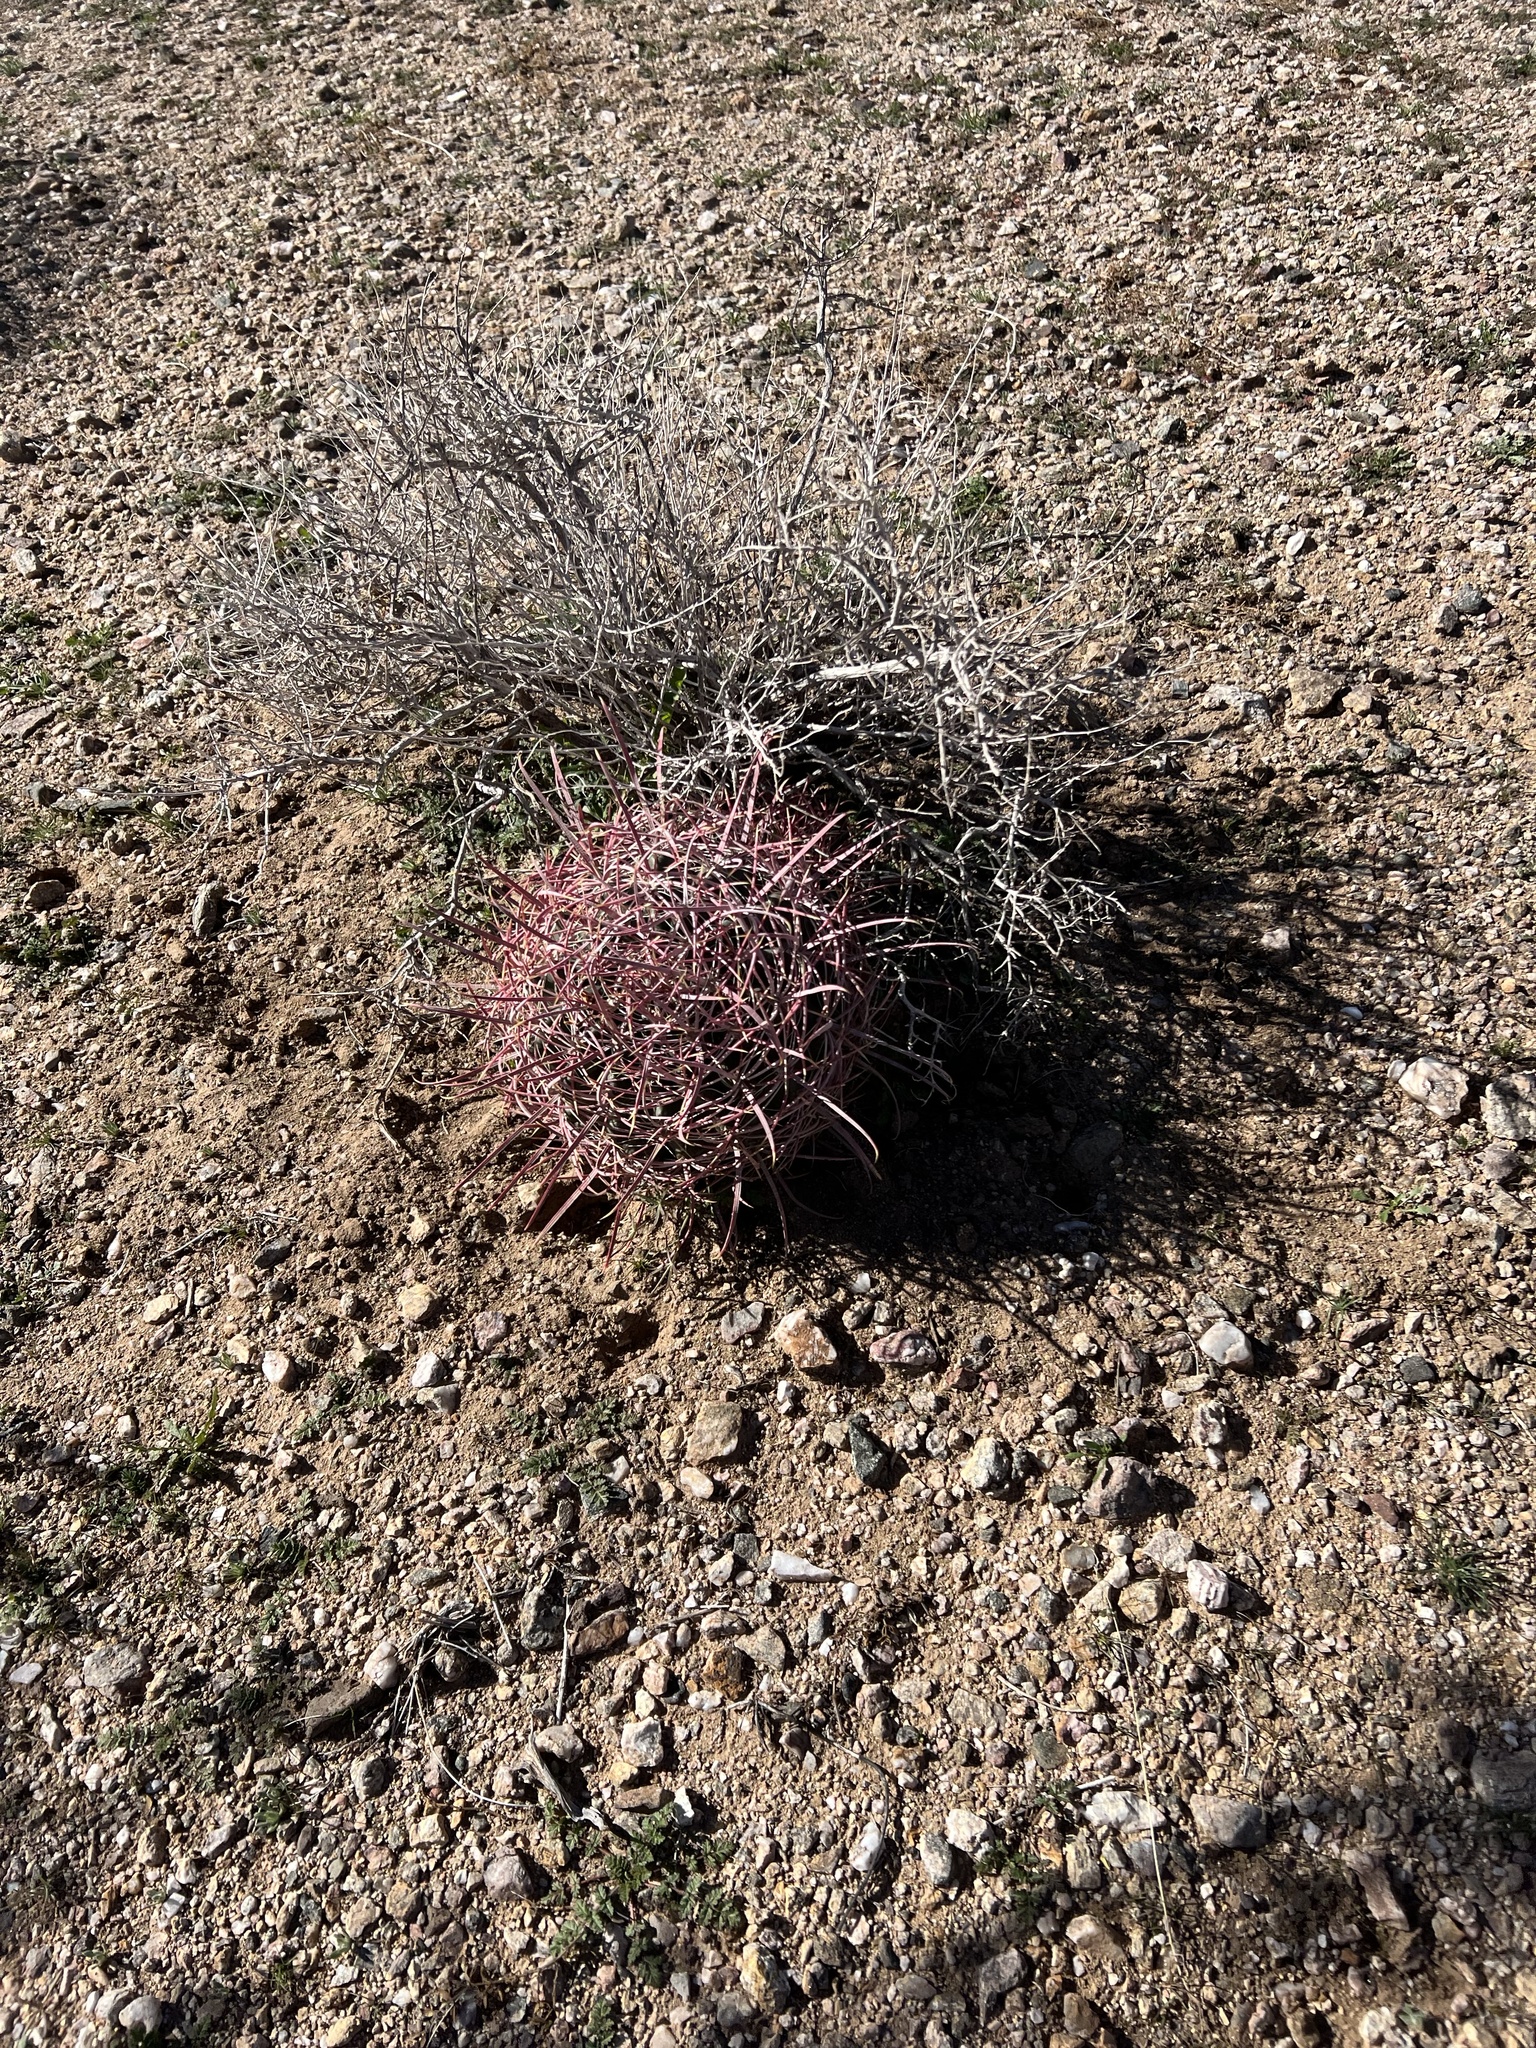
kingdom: Plantae
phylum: Tracheophyta
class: Magnoliopsida
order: Caryophyllales
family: Cactaceae
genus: Ferocactus
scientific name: Ferocactus cylindraceus
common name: California barrel cactus
